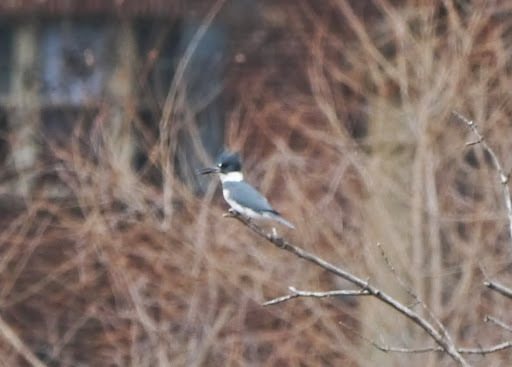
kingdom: Animalia
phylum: Chordata
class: Aves
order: Coraciiformes
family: Alcedinidae
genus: Megaceryle
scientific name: Megaceryle alcyon
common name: Belted kingfisher
